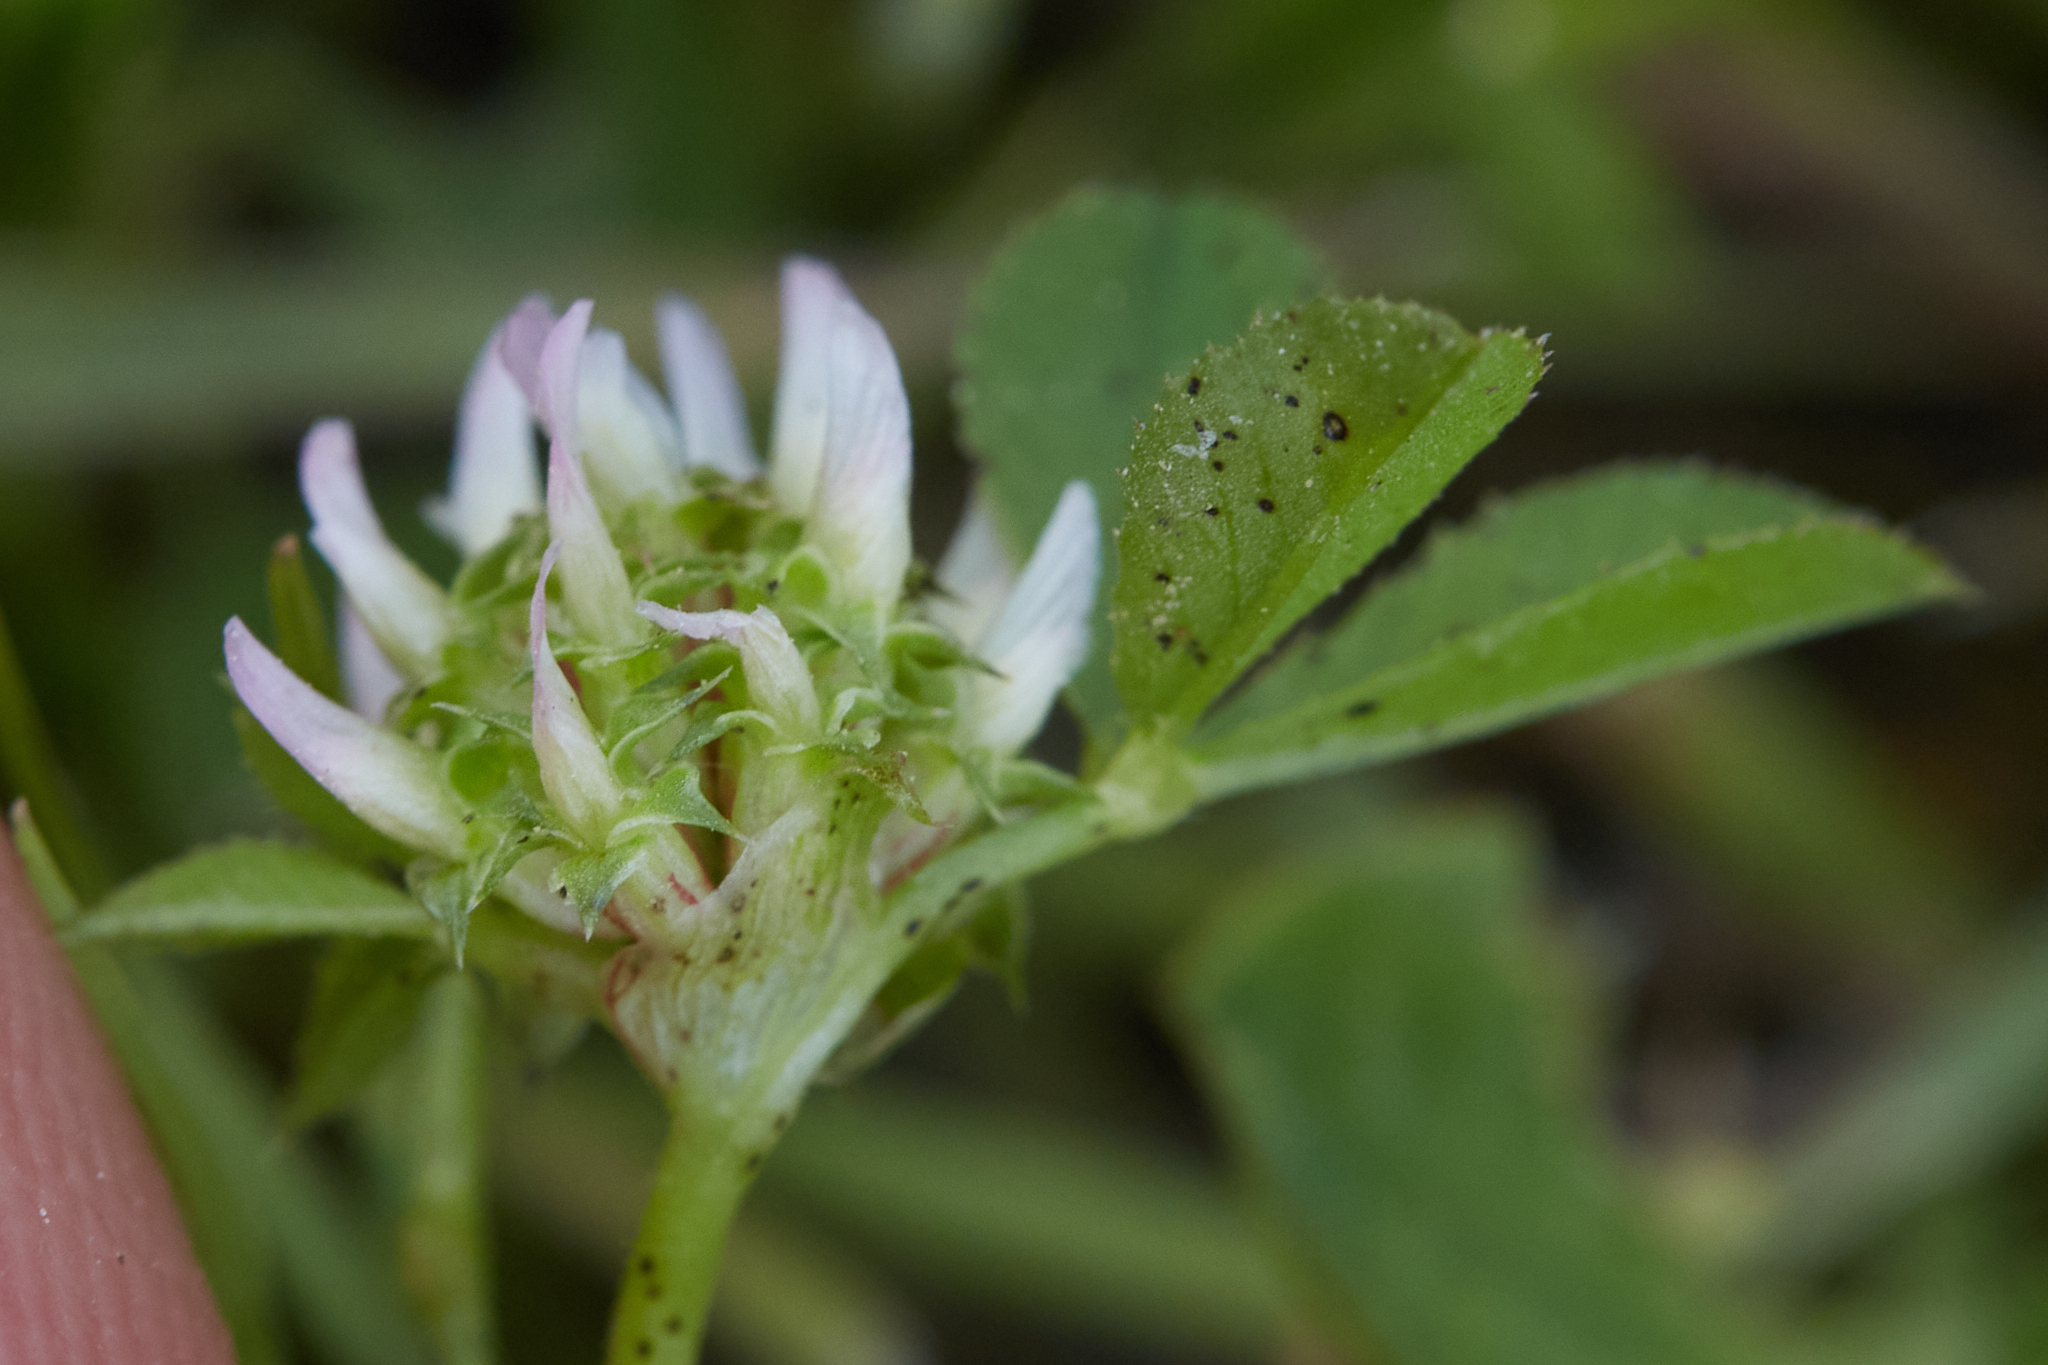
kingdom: Plantae
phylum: Tracheophyta
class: Magnoliopsida
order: Fabales
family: Fabaceae
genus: Trifolium
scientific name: Trifolium glomeratum
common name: Clustered clover
